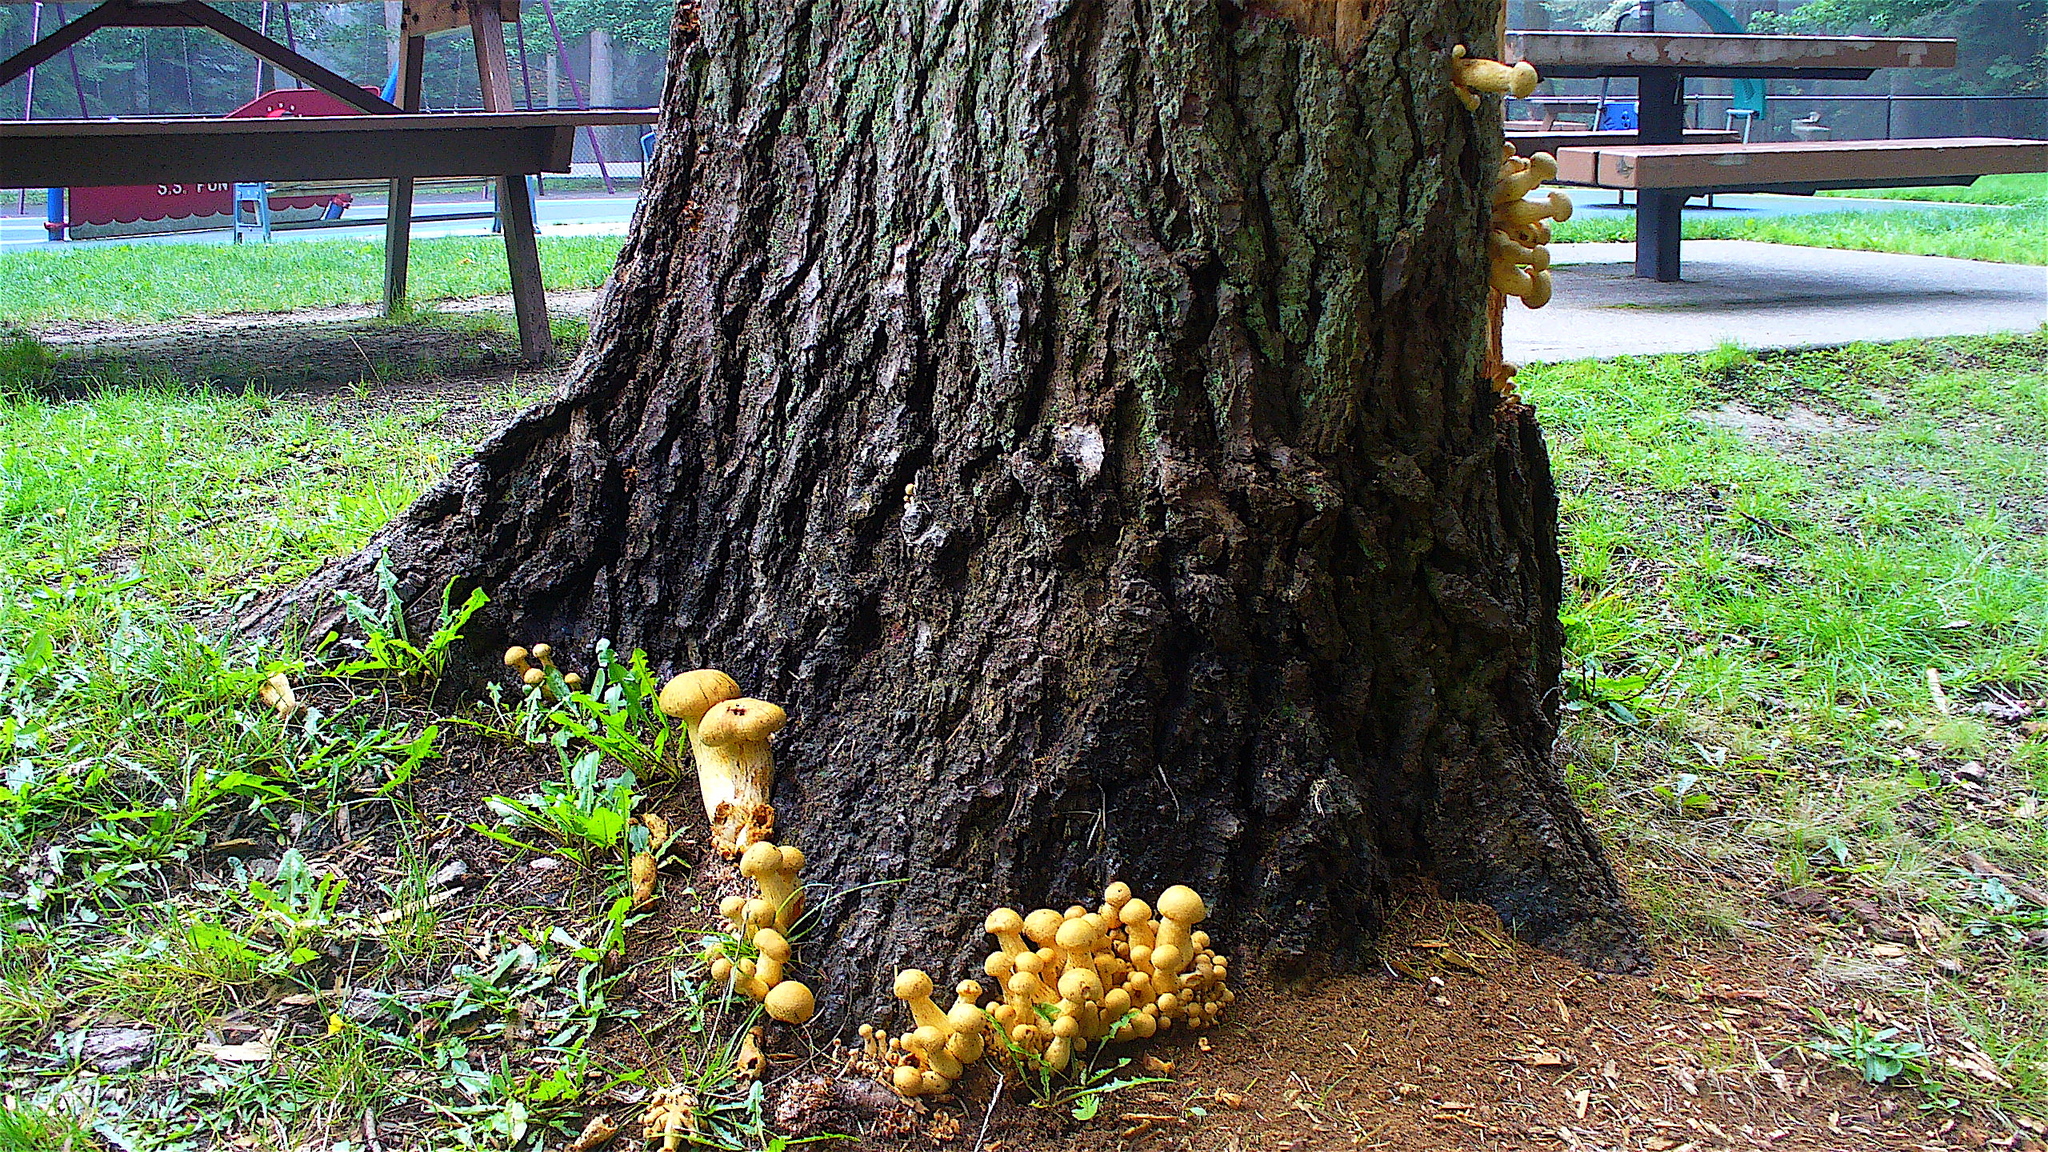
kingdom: Fungi
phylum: Basidiomycota
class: Agaricomycetes
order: Agaricales
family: Hymenogastraceae
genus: Gymnopilus
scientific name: Gymnopilus ventricosus
